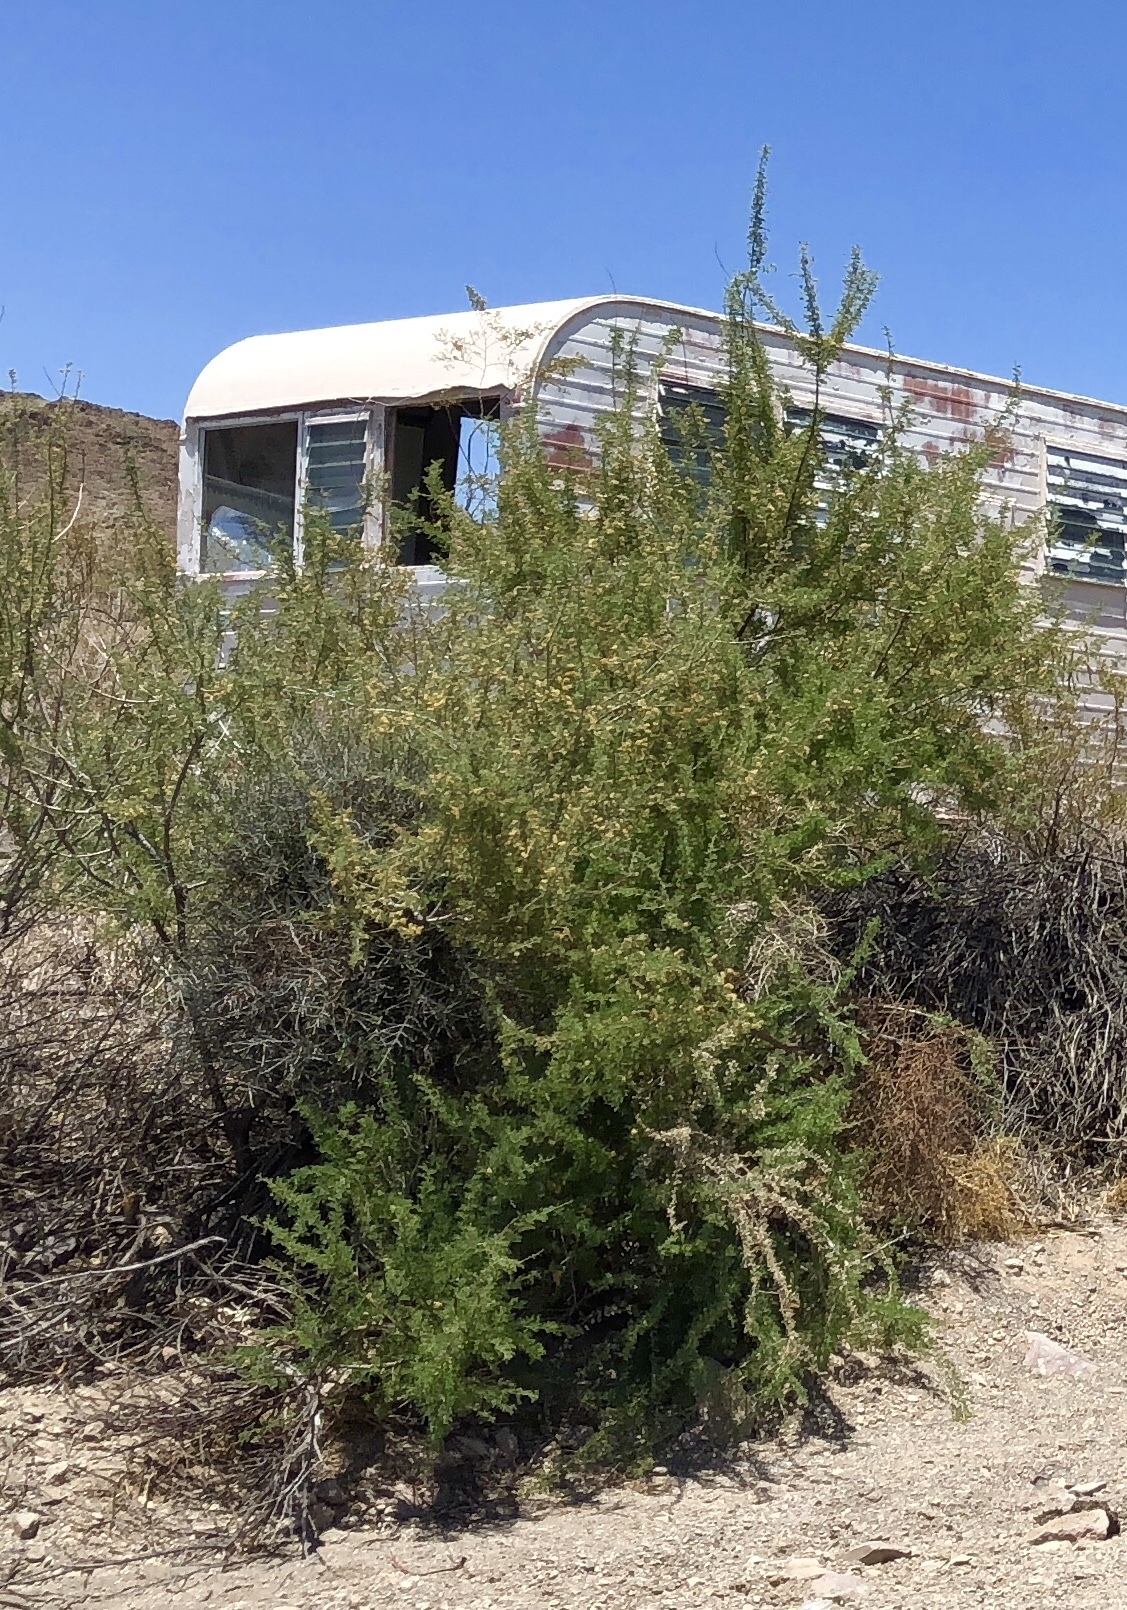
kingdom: Plantae
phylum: Tracheophyta
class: Magnoliopsida
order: Fabales
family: Fabaceae
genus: Senegalia
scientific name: Senegalia greggii
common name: Texas-mimosa
